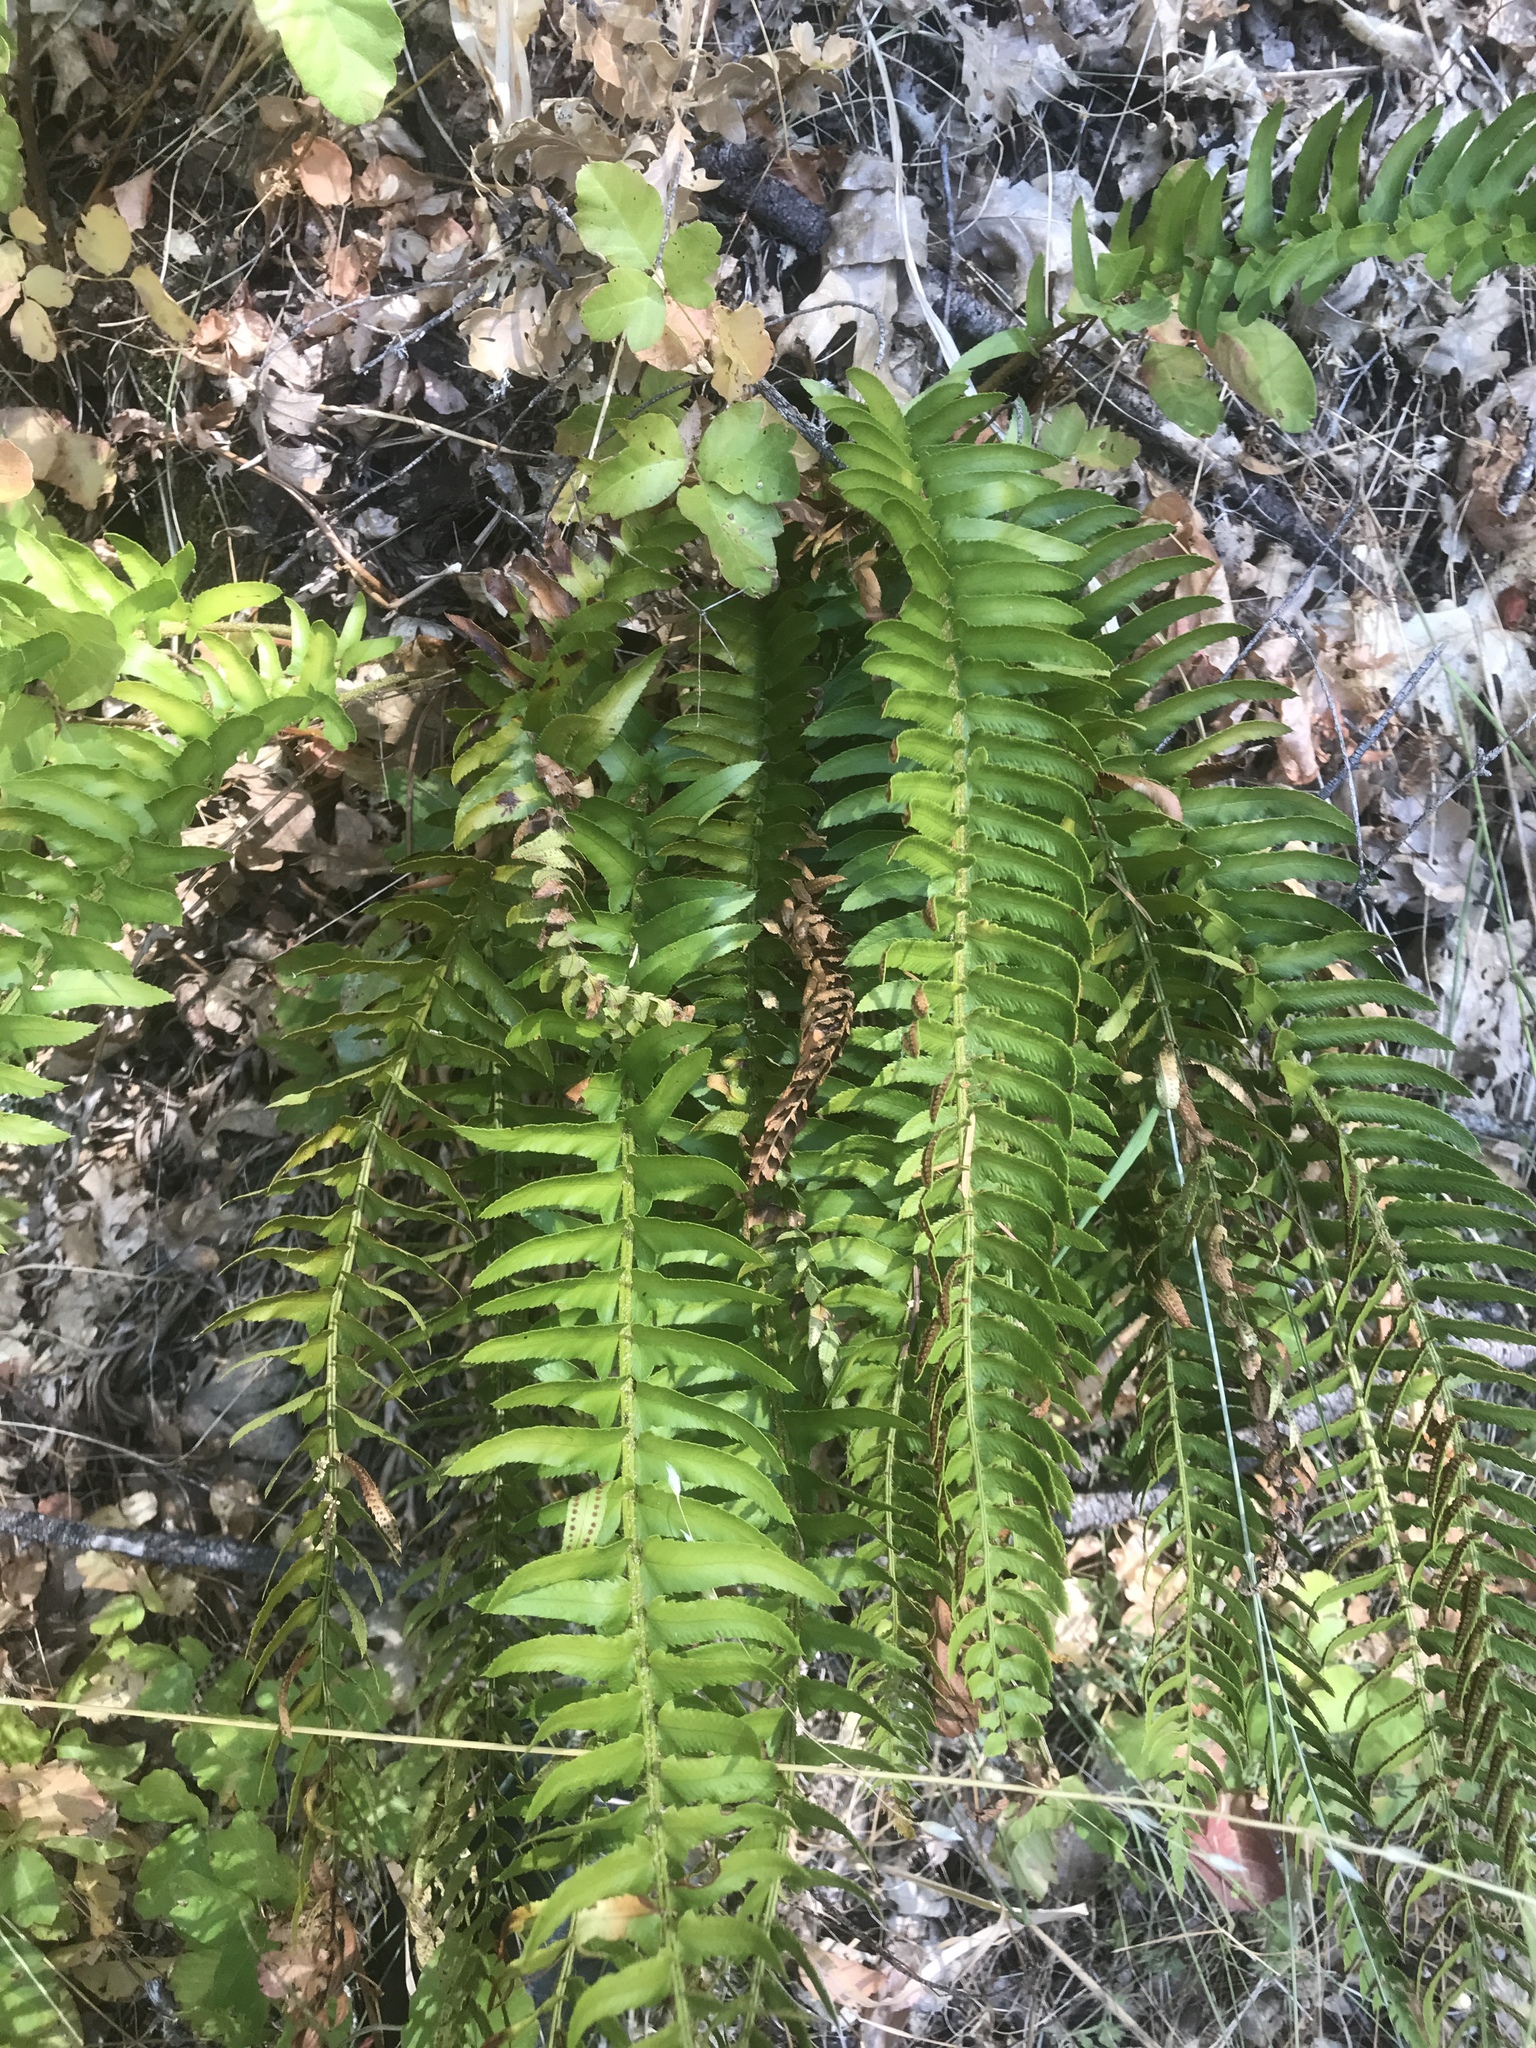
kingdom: Plantae
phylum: Tracheophyta
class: Polypodiopsida
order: Polypodiales
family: Dryopteridaceae
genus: Polystichum
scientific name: Polystichum imbricans
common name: Dwarf western sword fern
